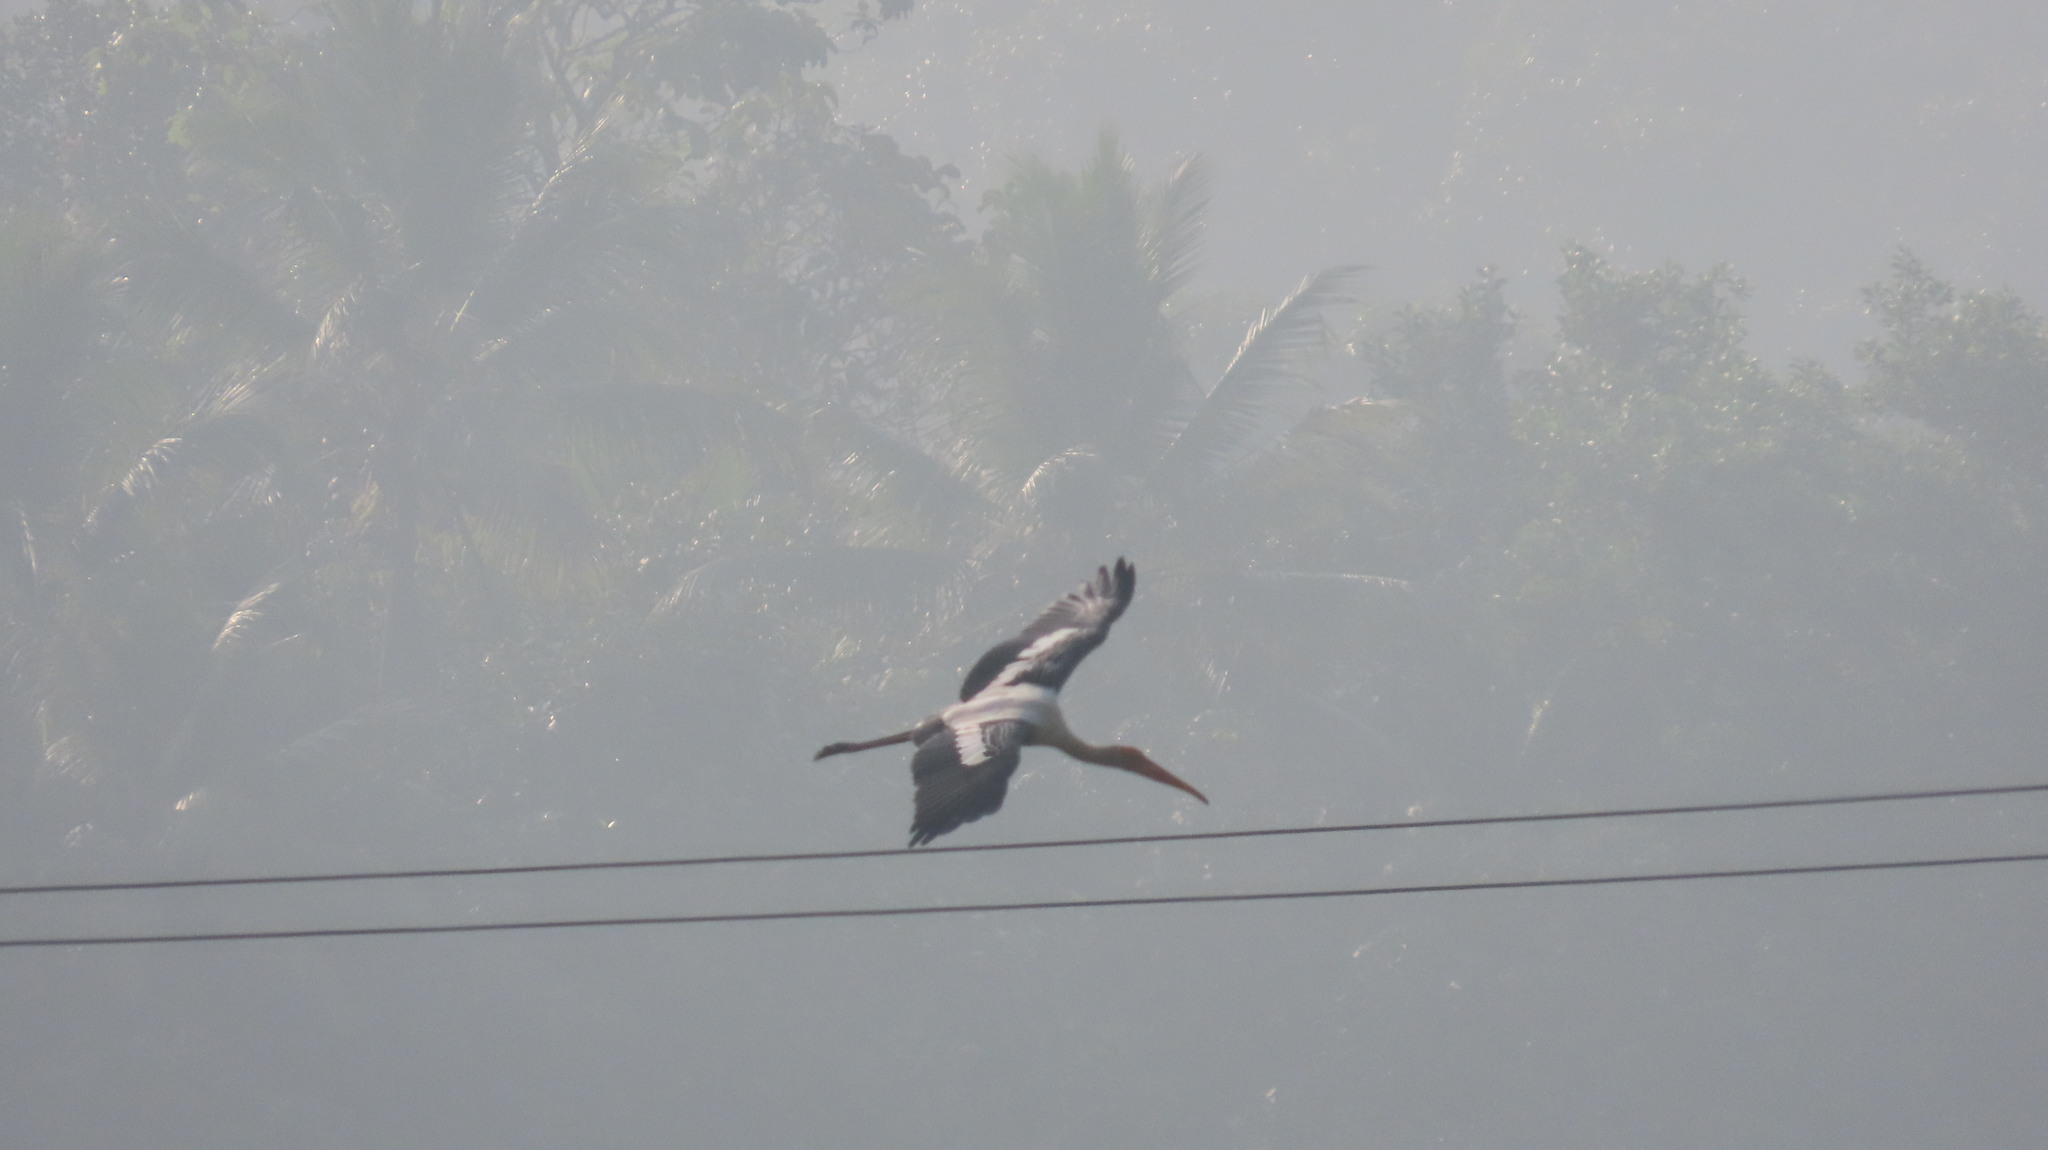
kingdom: Animalia
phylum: Chordata
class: Aves
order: Ciconiiformes
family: Ciconiidae
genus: Mycteria
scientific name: Mycteria leucocephala
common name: Painted stork
